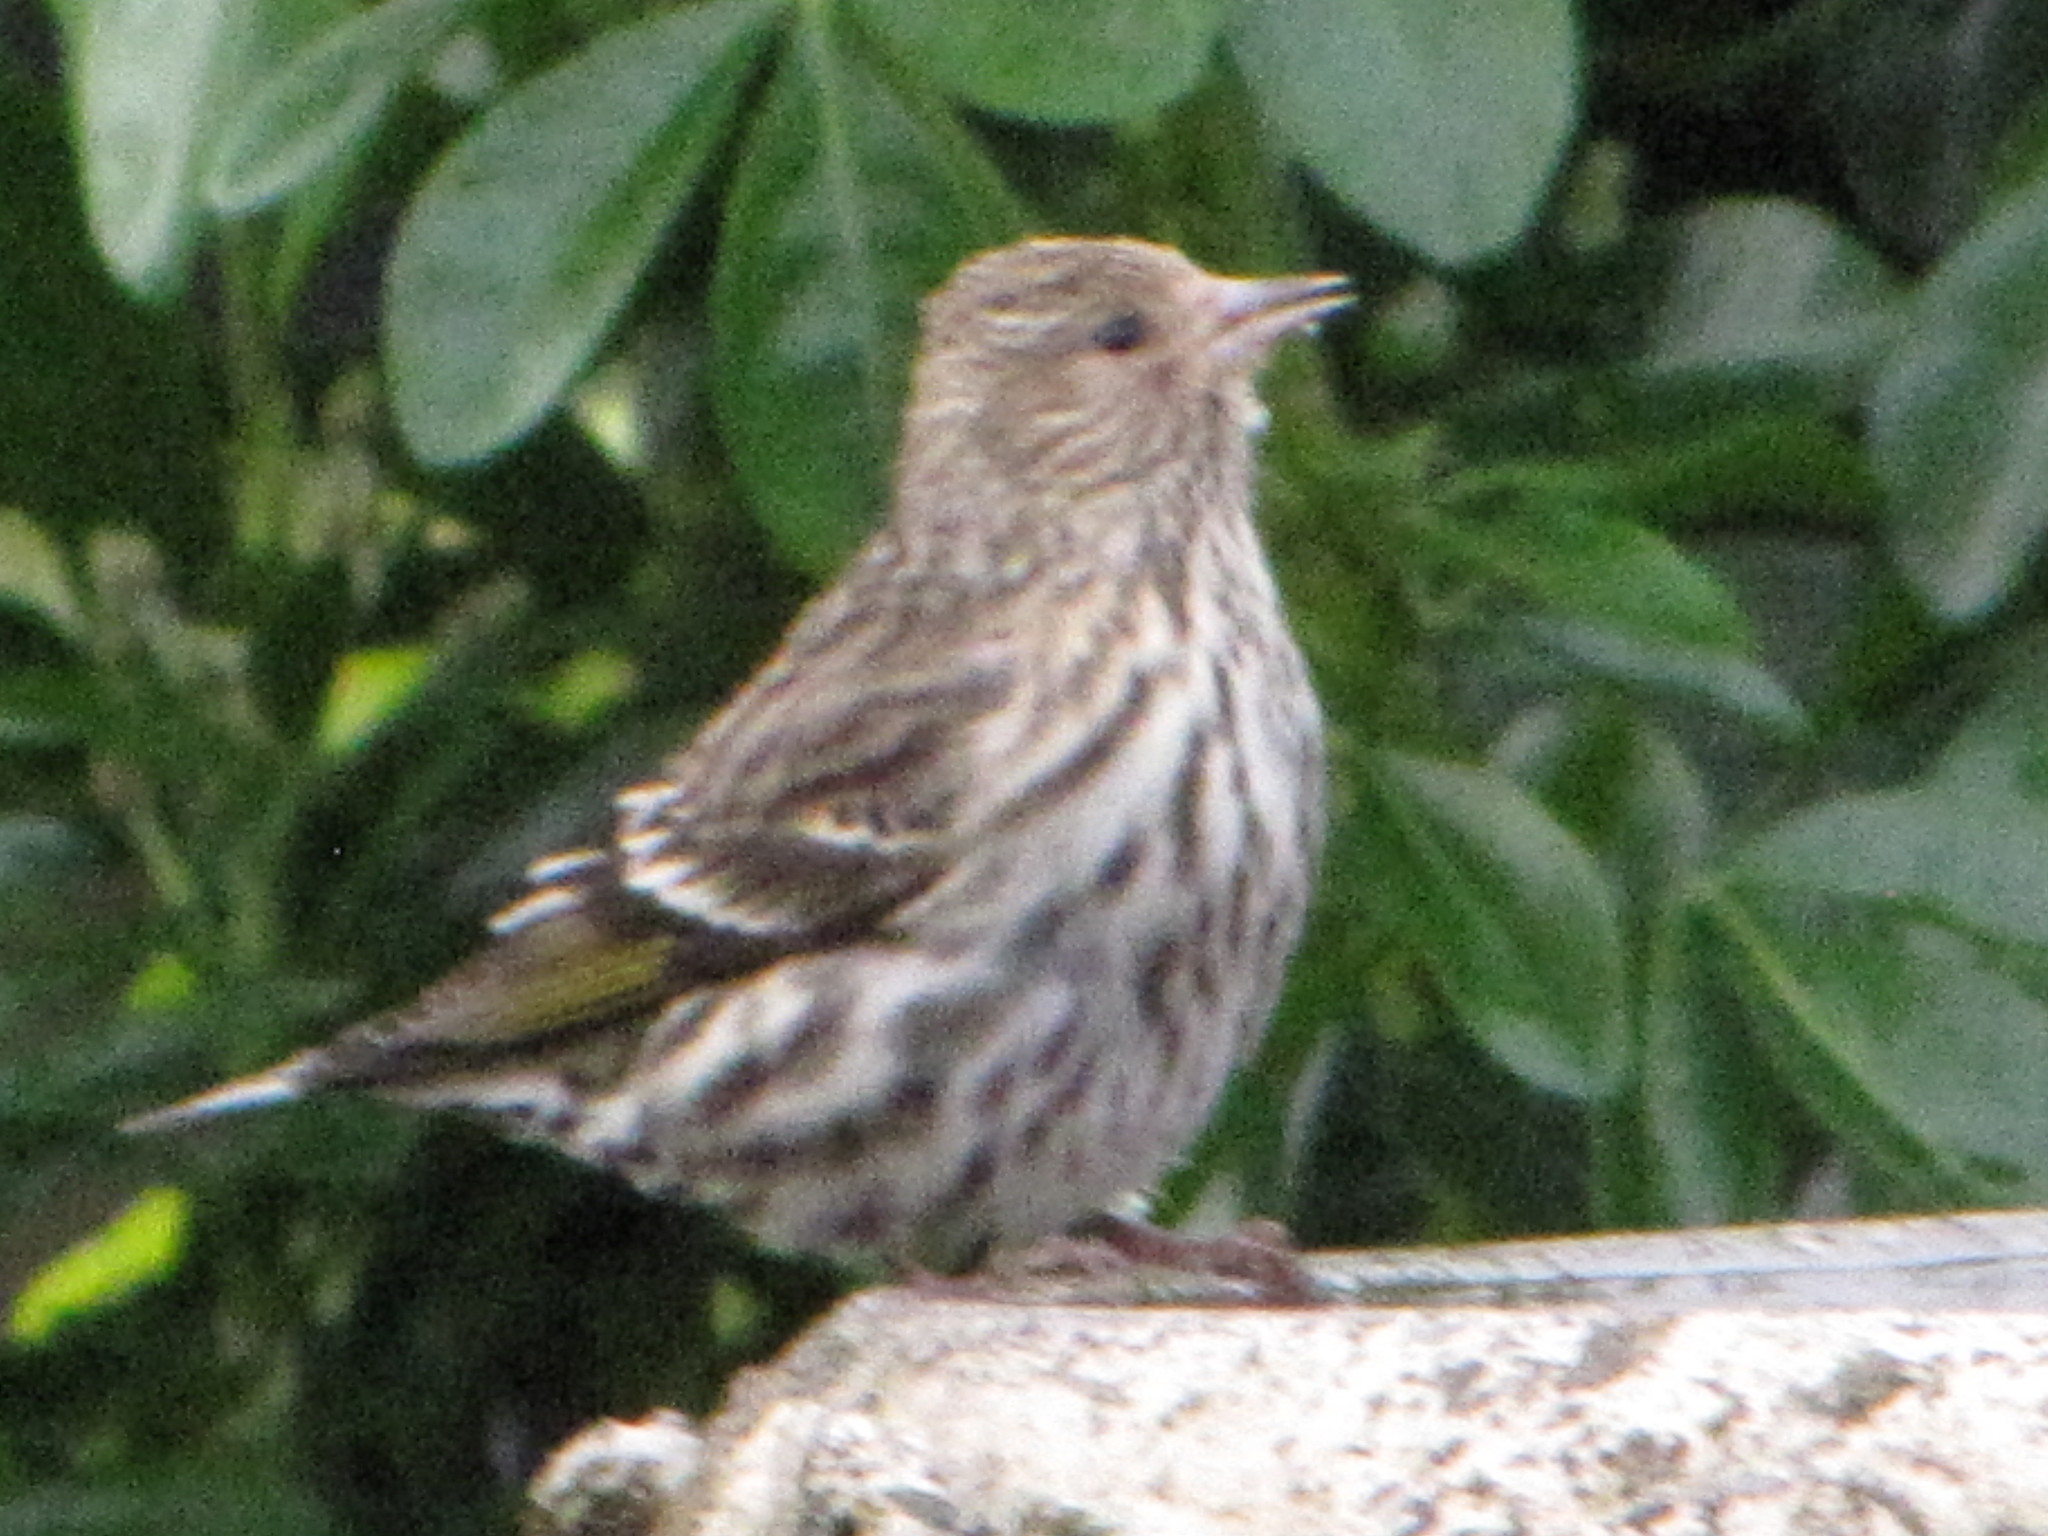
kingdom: Animalia
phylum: Chordata
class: Aves
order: Passeriformes
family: Fringillidae
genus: Spinus
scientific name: Spinus pinus
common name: Pine siskin
